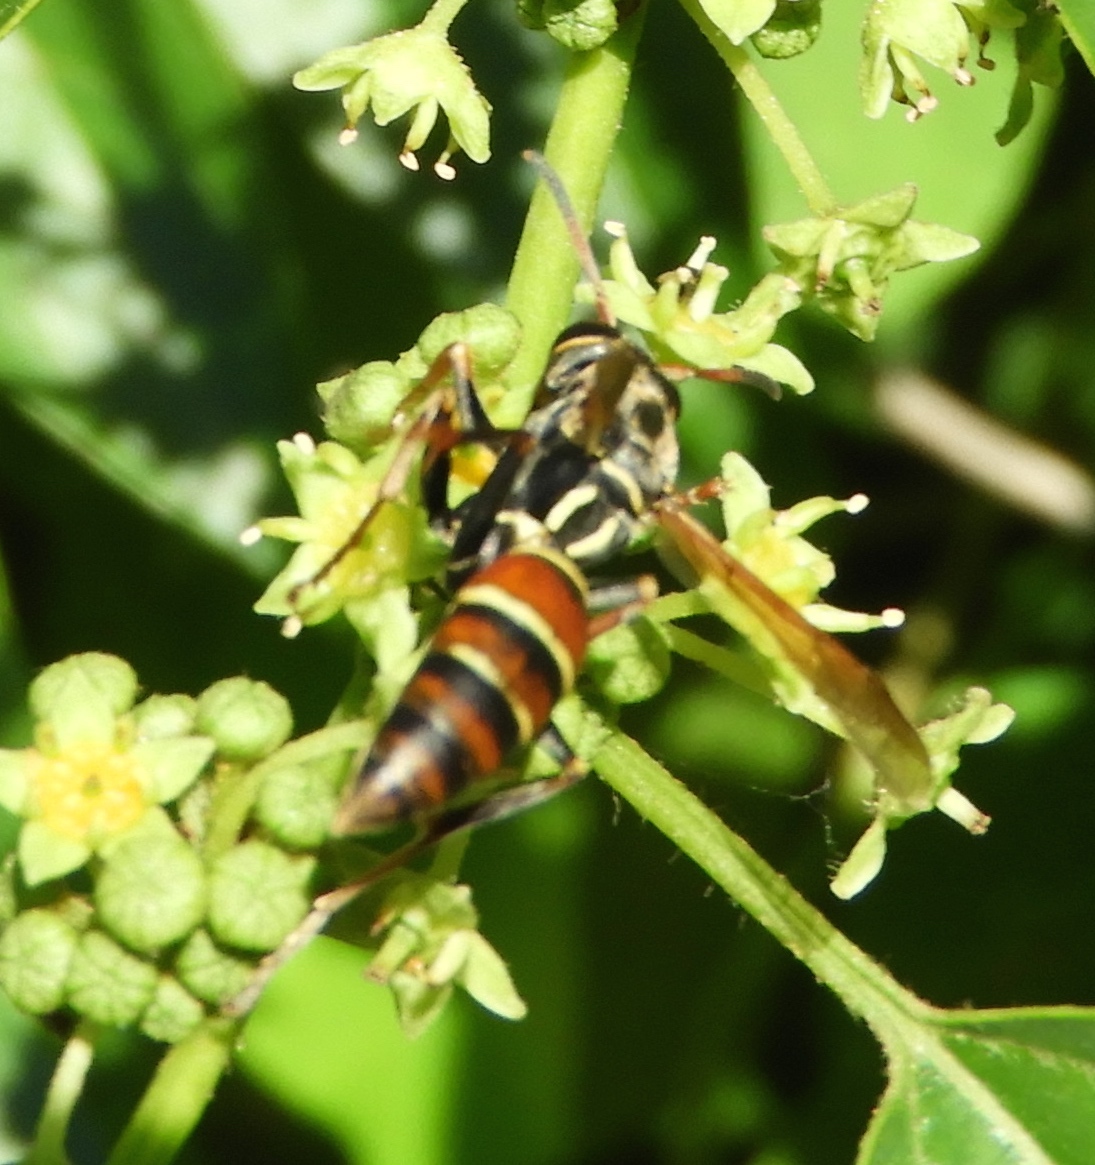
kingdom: Animalia
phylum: Arthropoda
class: Insecta
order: Hymenoptera
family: Eumenidae
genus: Polistes
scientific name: Polistes
